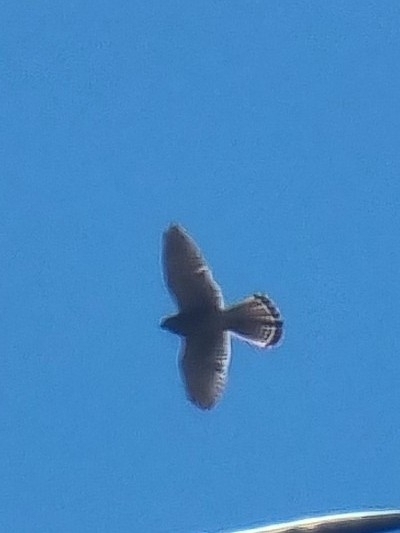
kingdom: Animalia
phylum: Chordata
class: Aves
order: Falconiformes
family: Falconidae
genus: Falco
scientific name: Falco tinnunculus
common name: Common kestrel
